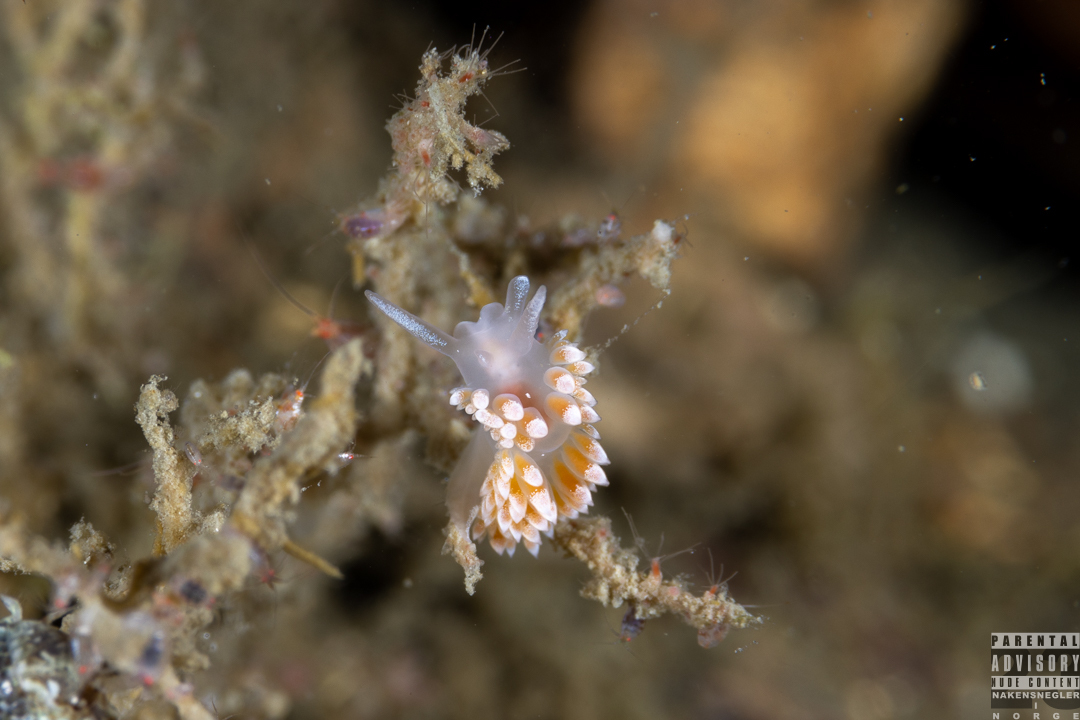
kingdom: Animalia
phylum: Mollusca
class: Gastropoda
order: Nudibranchia
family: Coryphellidae
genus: Coryphella
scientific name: Coryphella verrucosa
